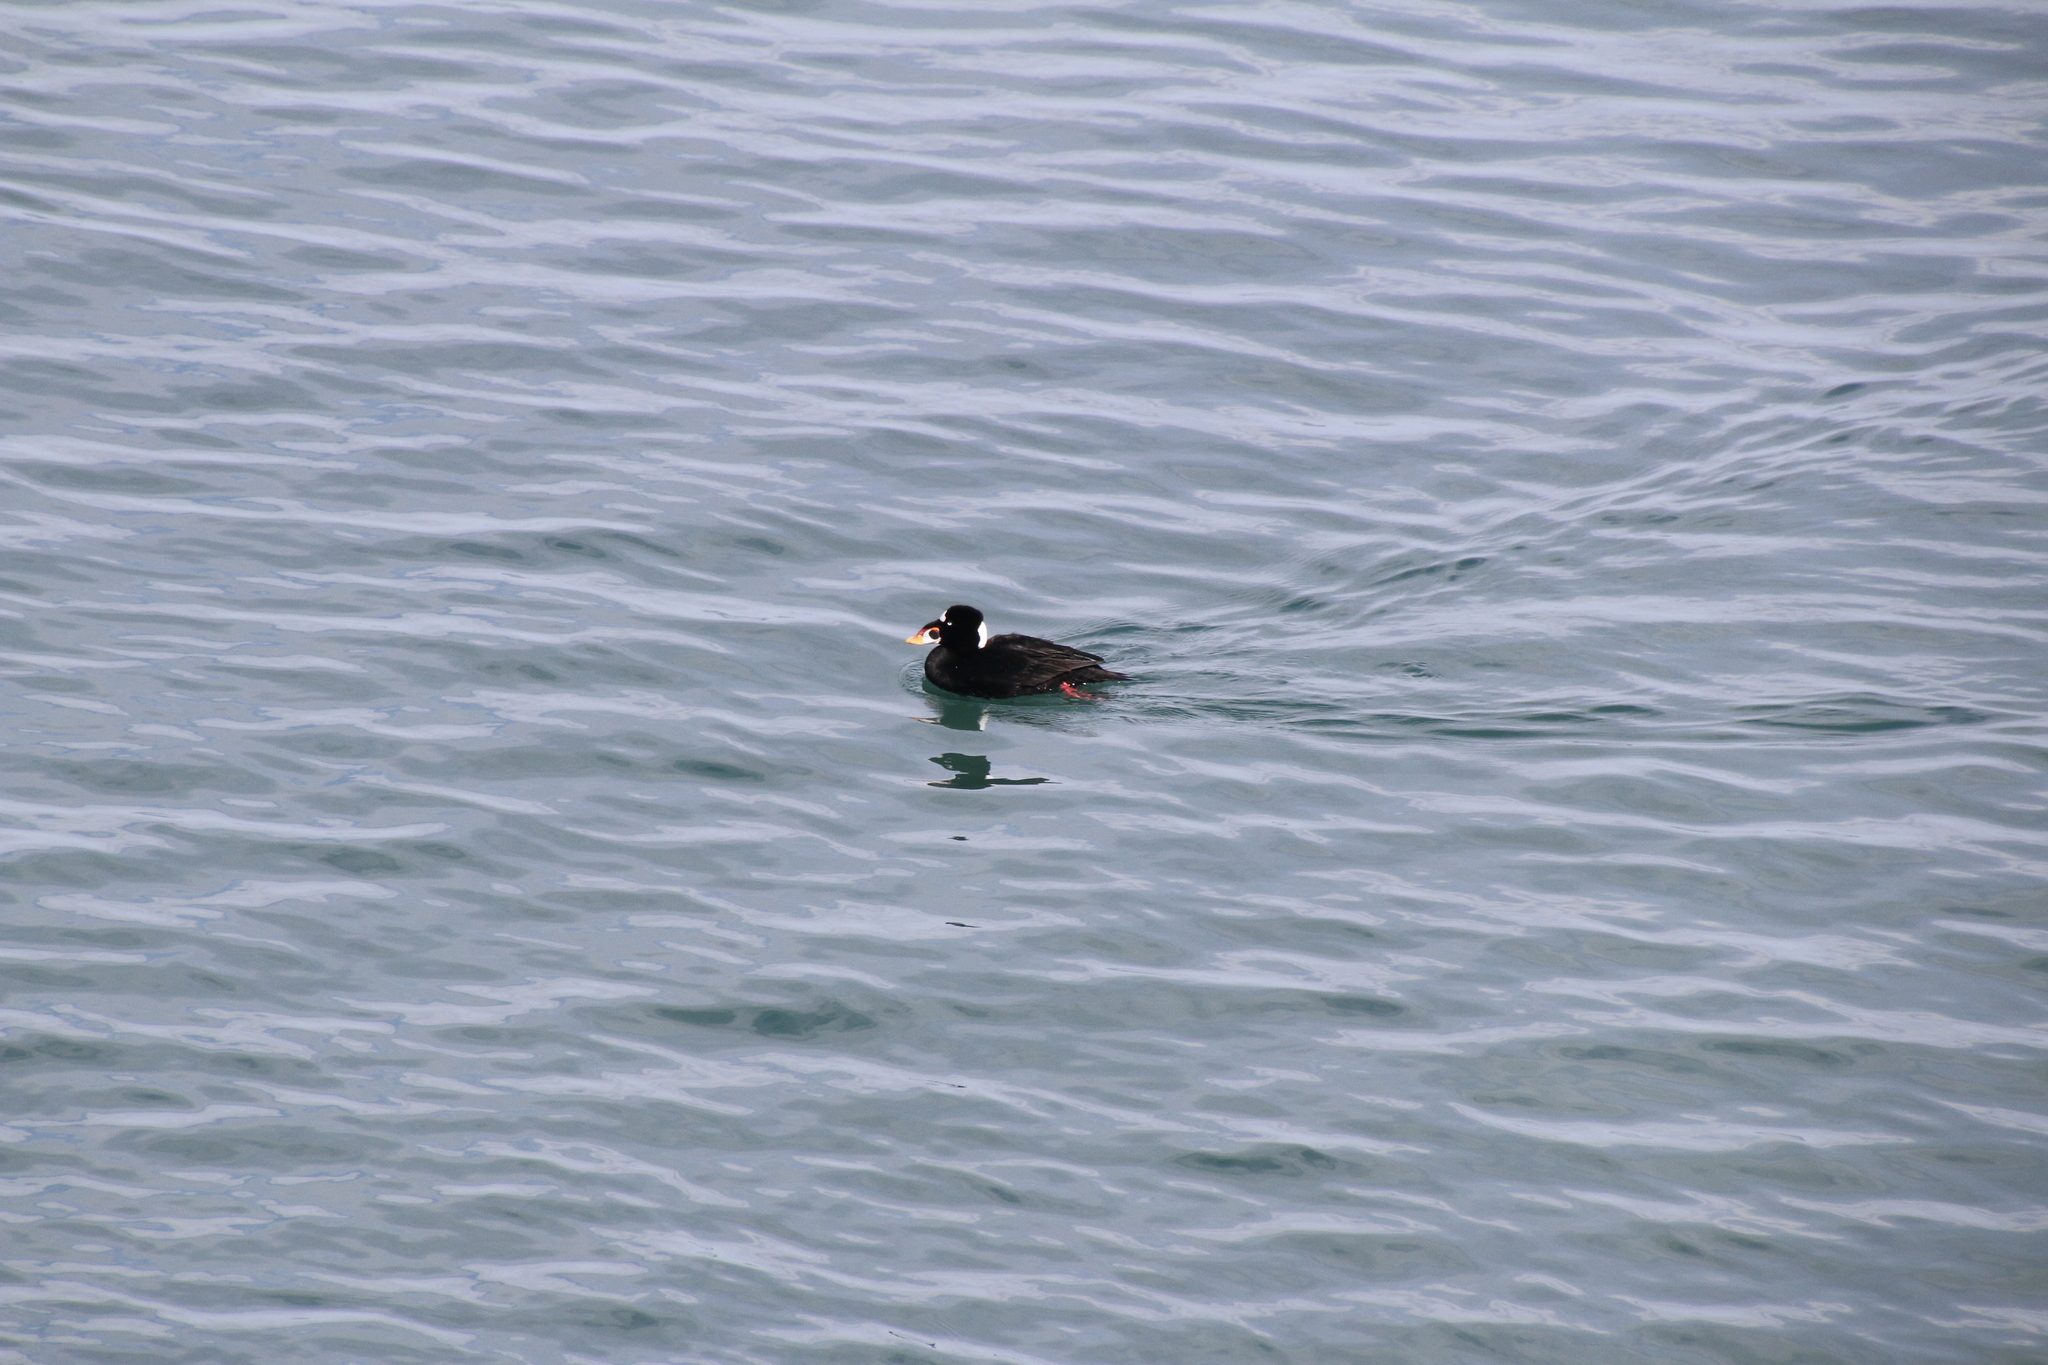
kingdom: Animalia
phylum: Chordata
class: Aves
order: Anseriformes
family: Anatidae
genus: Melanitta
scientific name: Melanitta perspicillata
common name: Surf scoter
